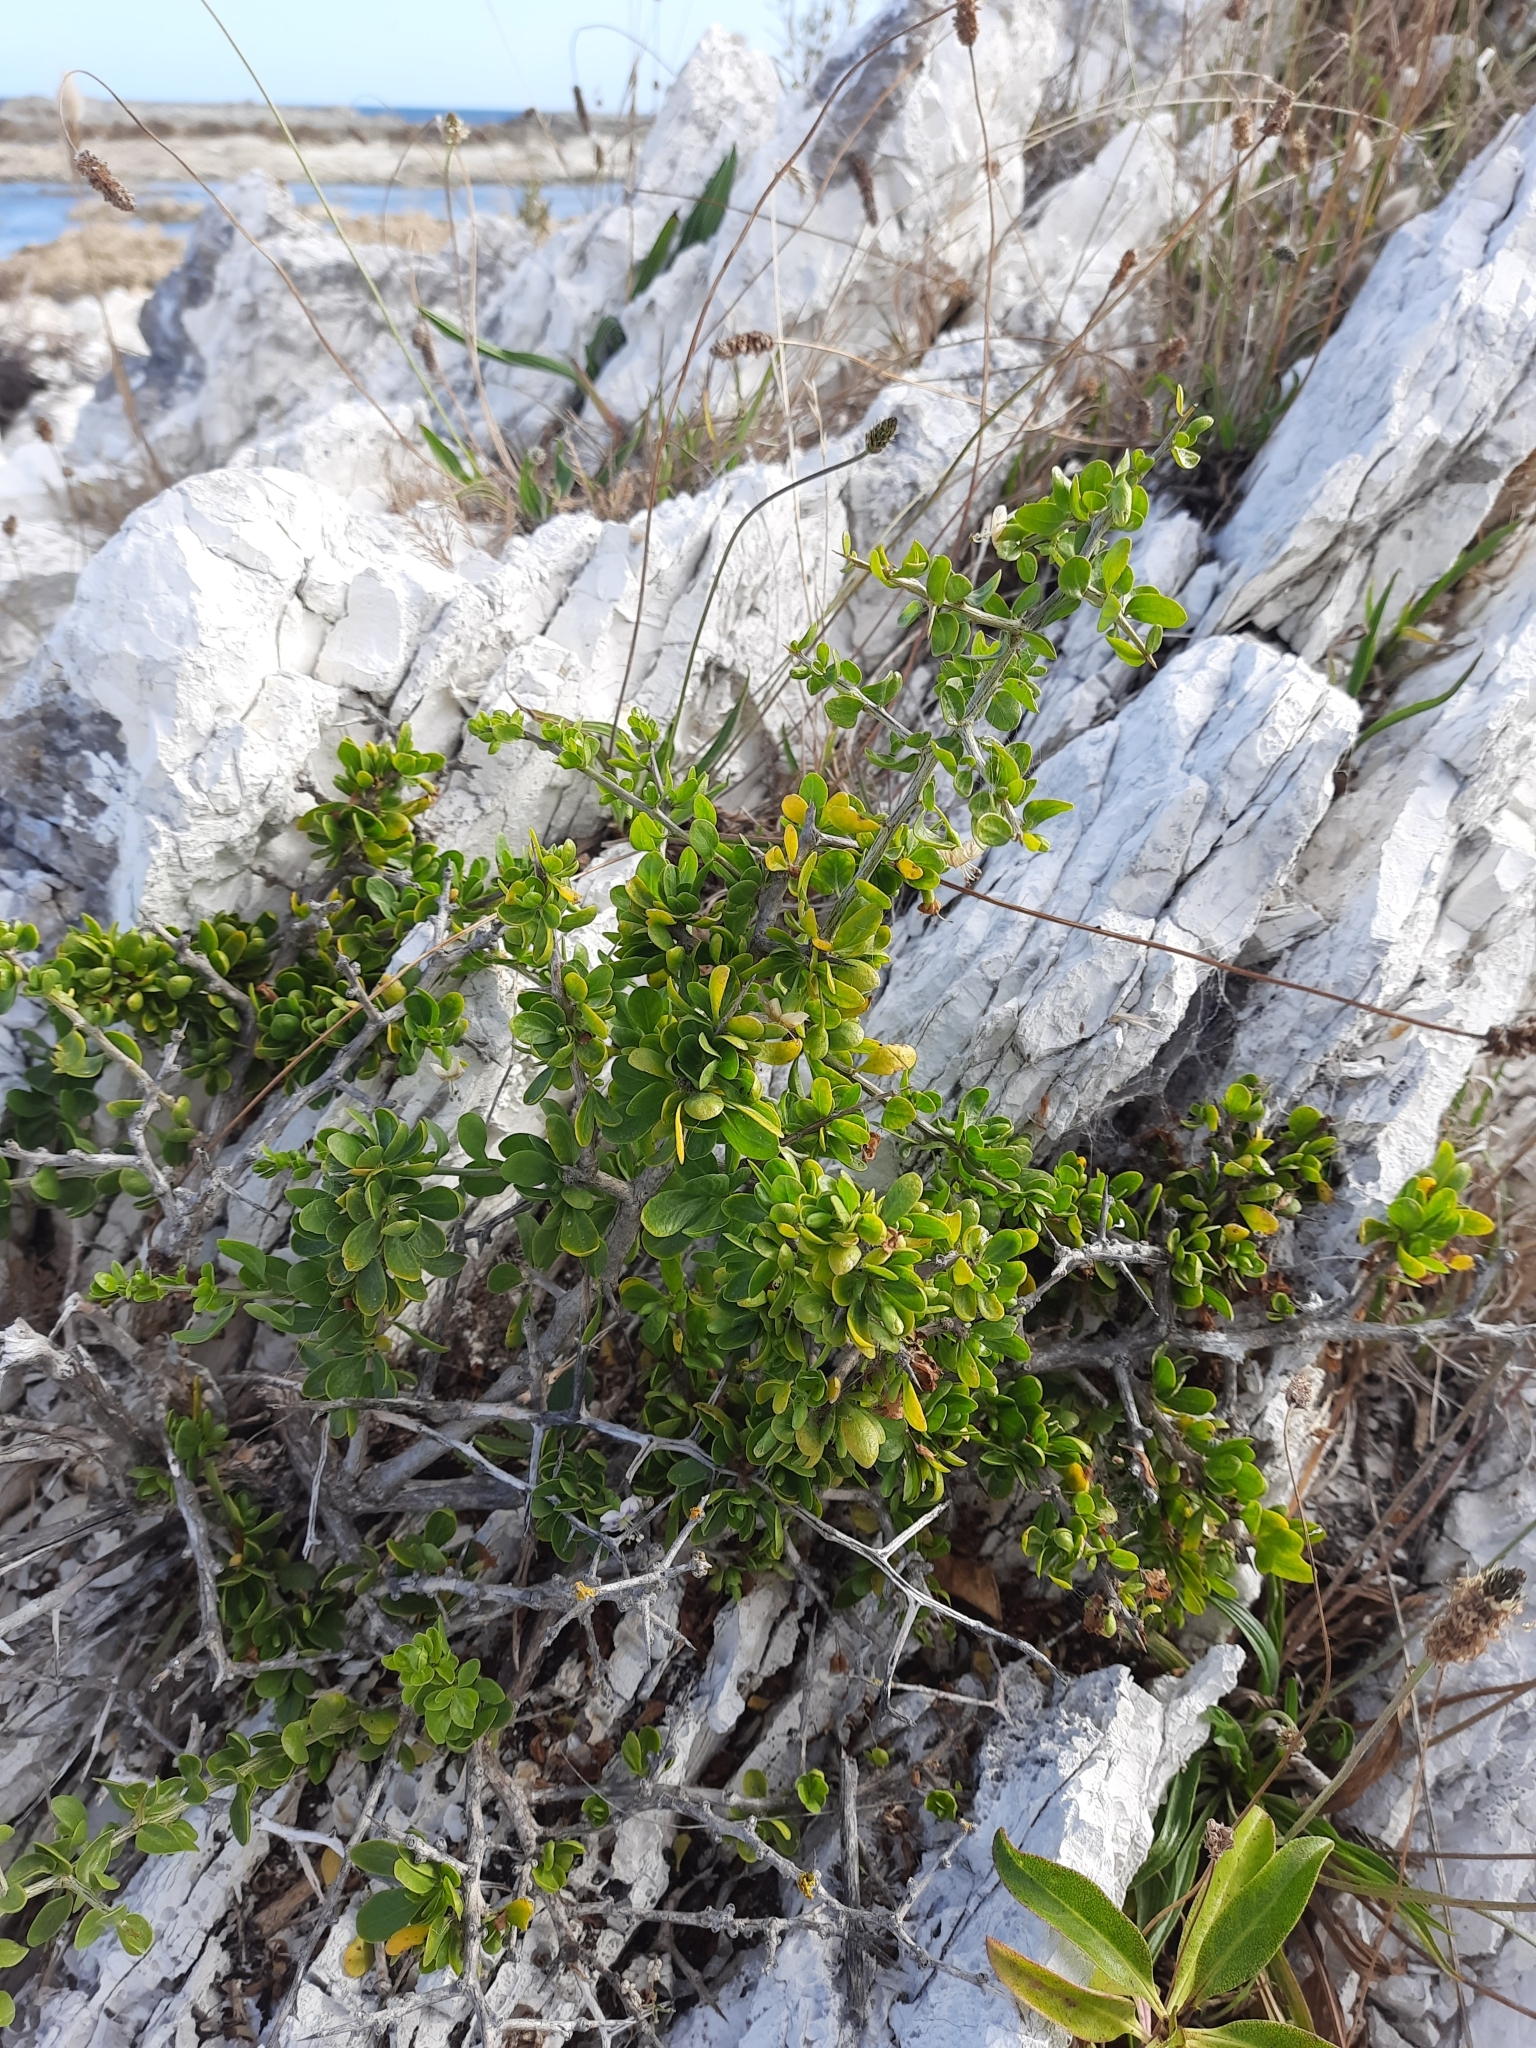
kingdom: Plantae
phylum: Tracheophyta
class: Magnoliopsida
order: Solanales
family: Solanaceae
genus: Lycium
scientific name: Lycium ferocissimum
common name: African boxthorn
